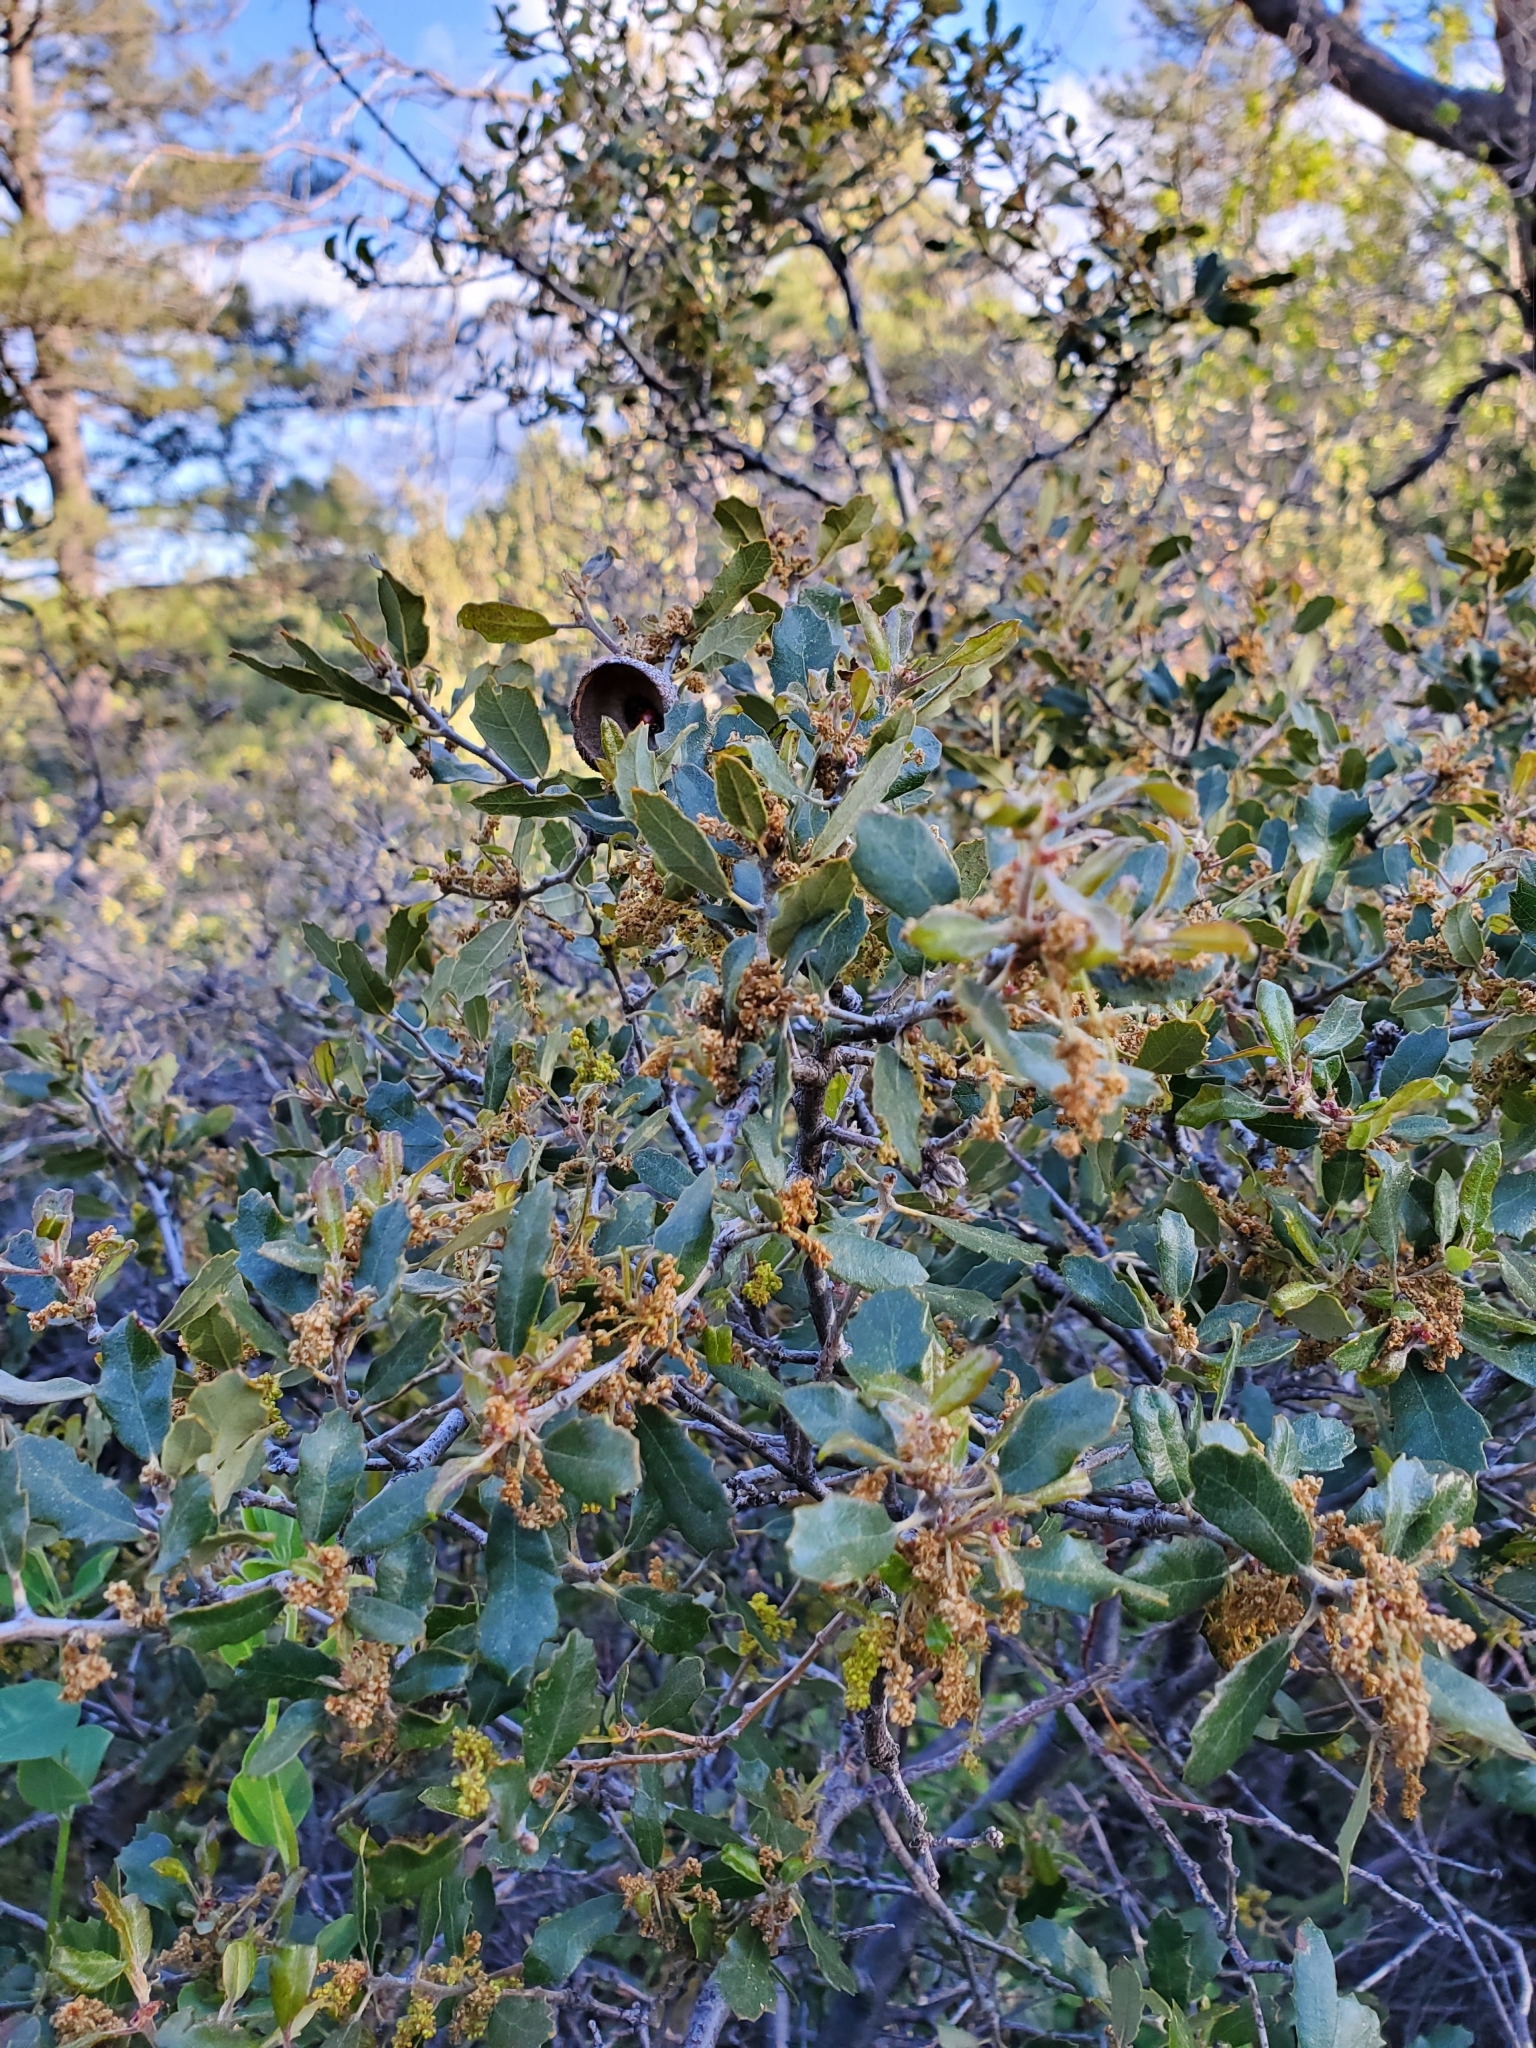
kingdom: Plantae
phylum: Tracheophyta
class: Magnoliopsida
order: Fagales
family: Fagaceae
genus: Quercus
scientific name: Quercus berberidifolia
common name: California scrub oak
